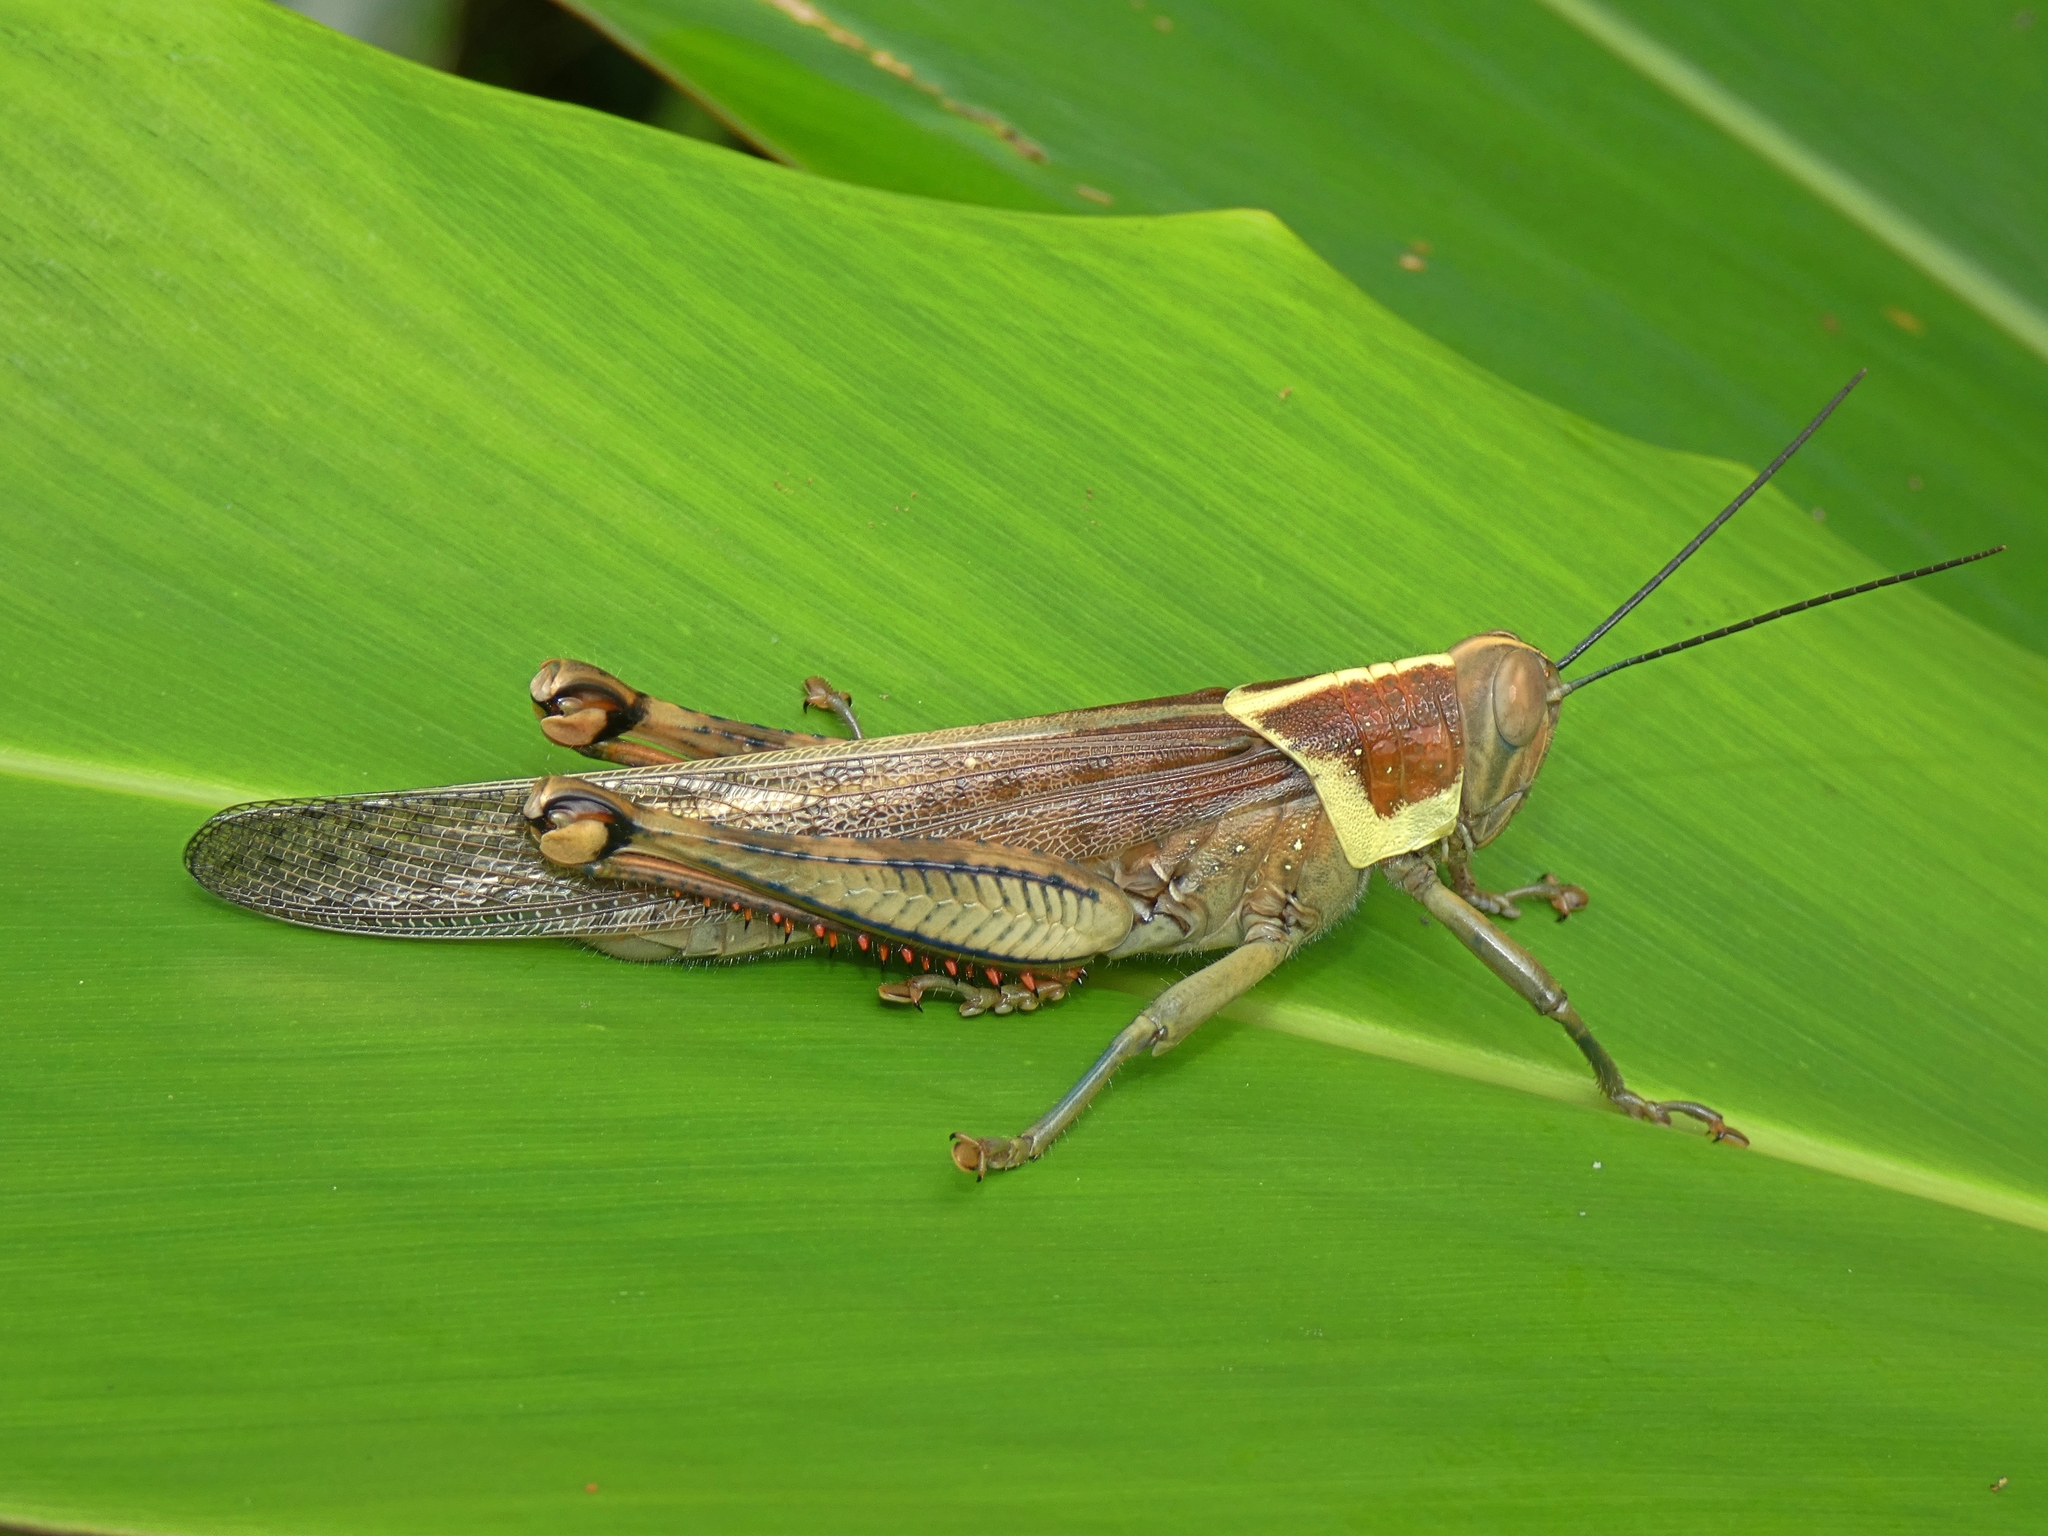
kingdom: Animalia
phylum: Arthropoda
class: Insecta
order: Orthoptera
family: Acrididae
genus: Valanga
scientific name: Valanga irregularis
